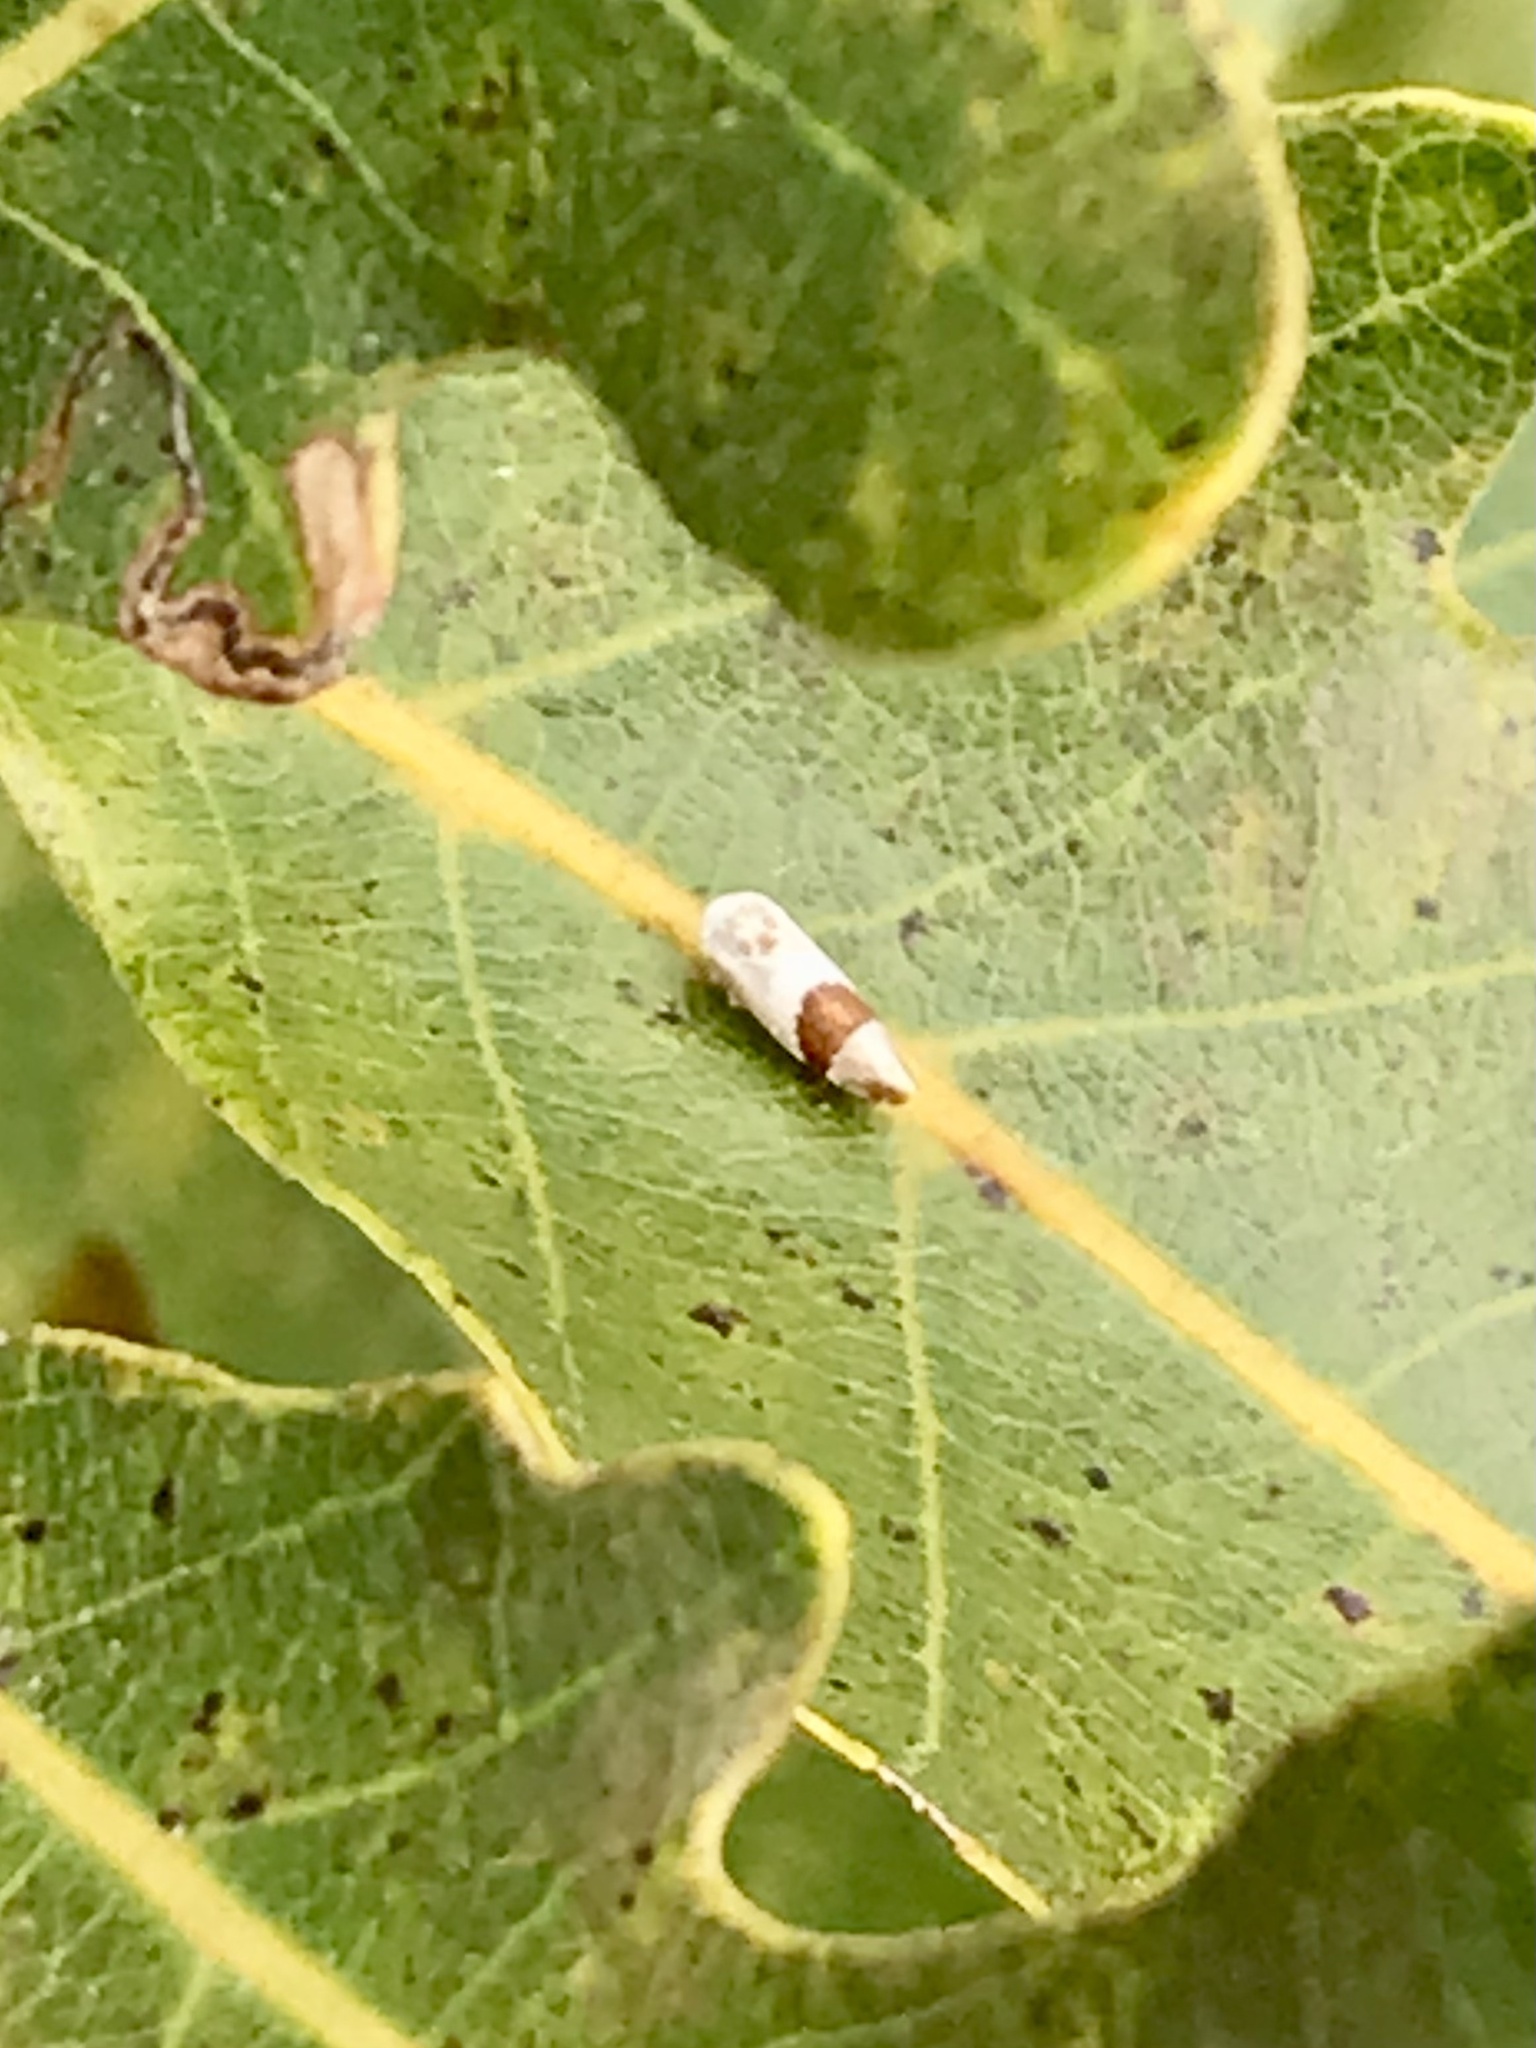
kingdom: Animalia
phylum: Arthropoda
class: Insecta
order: Hemiptera
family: Cicadellidae
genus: Norvellina
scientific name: Norvellina seminuda
